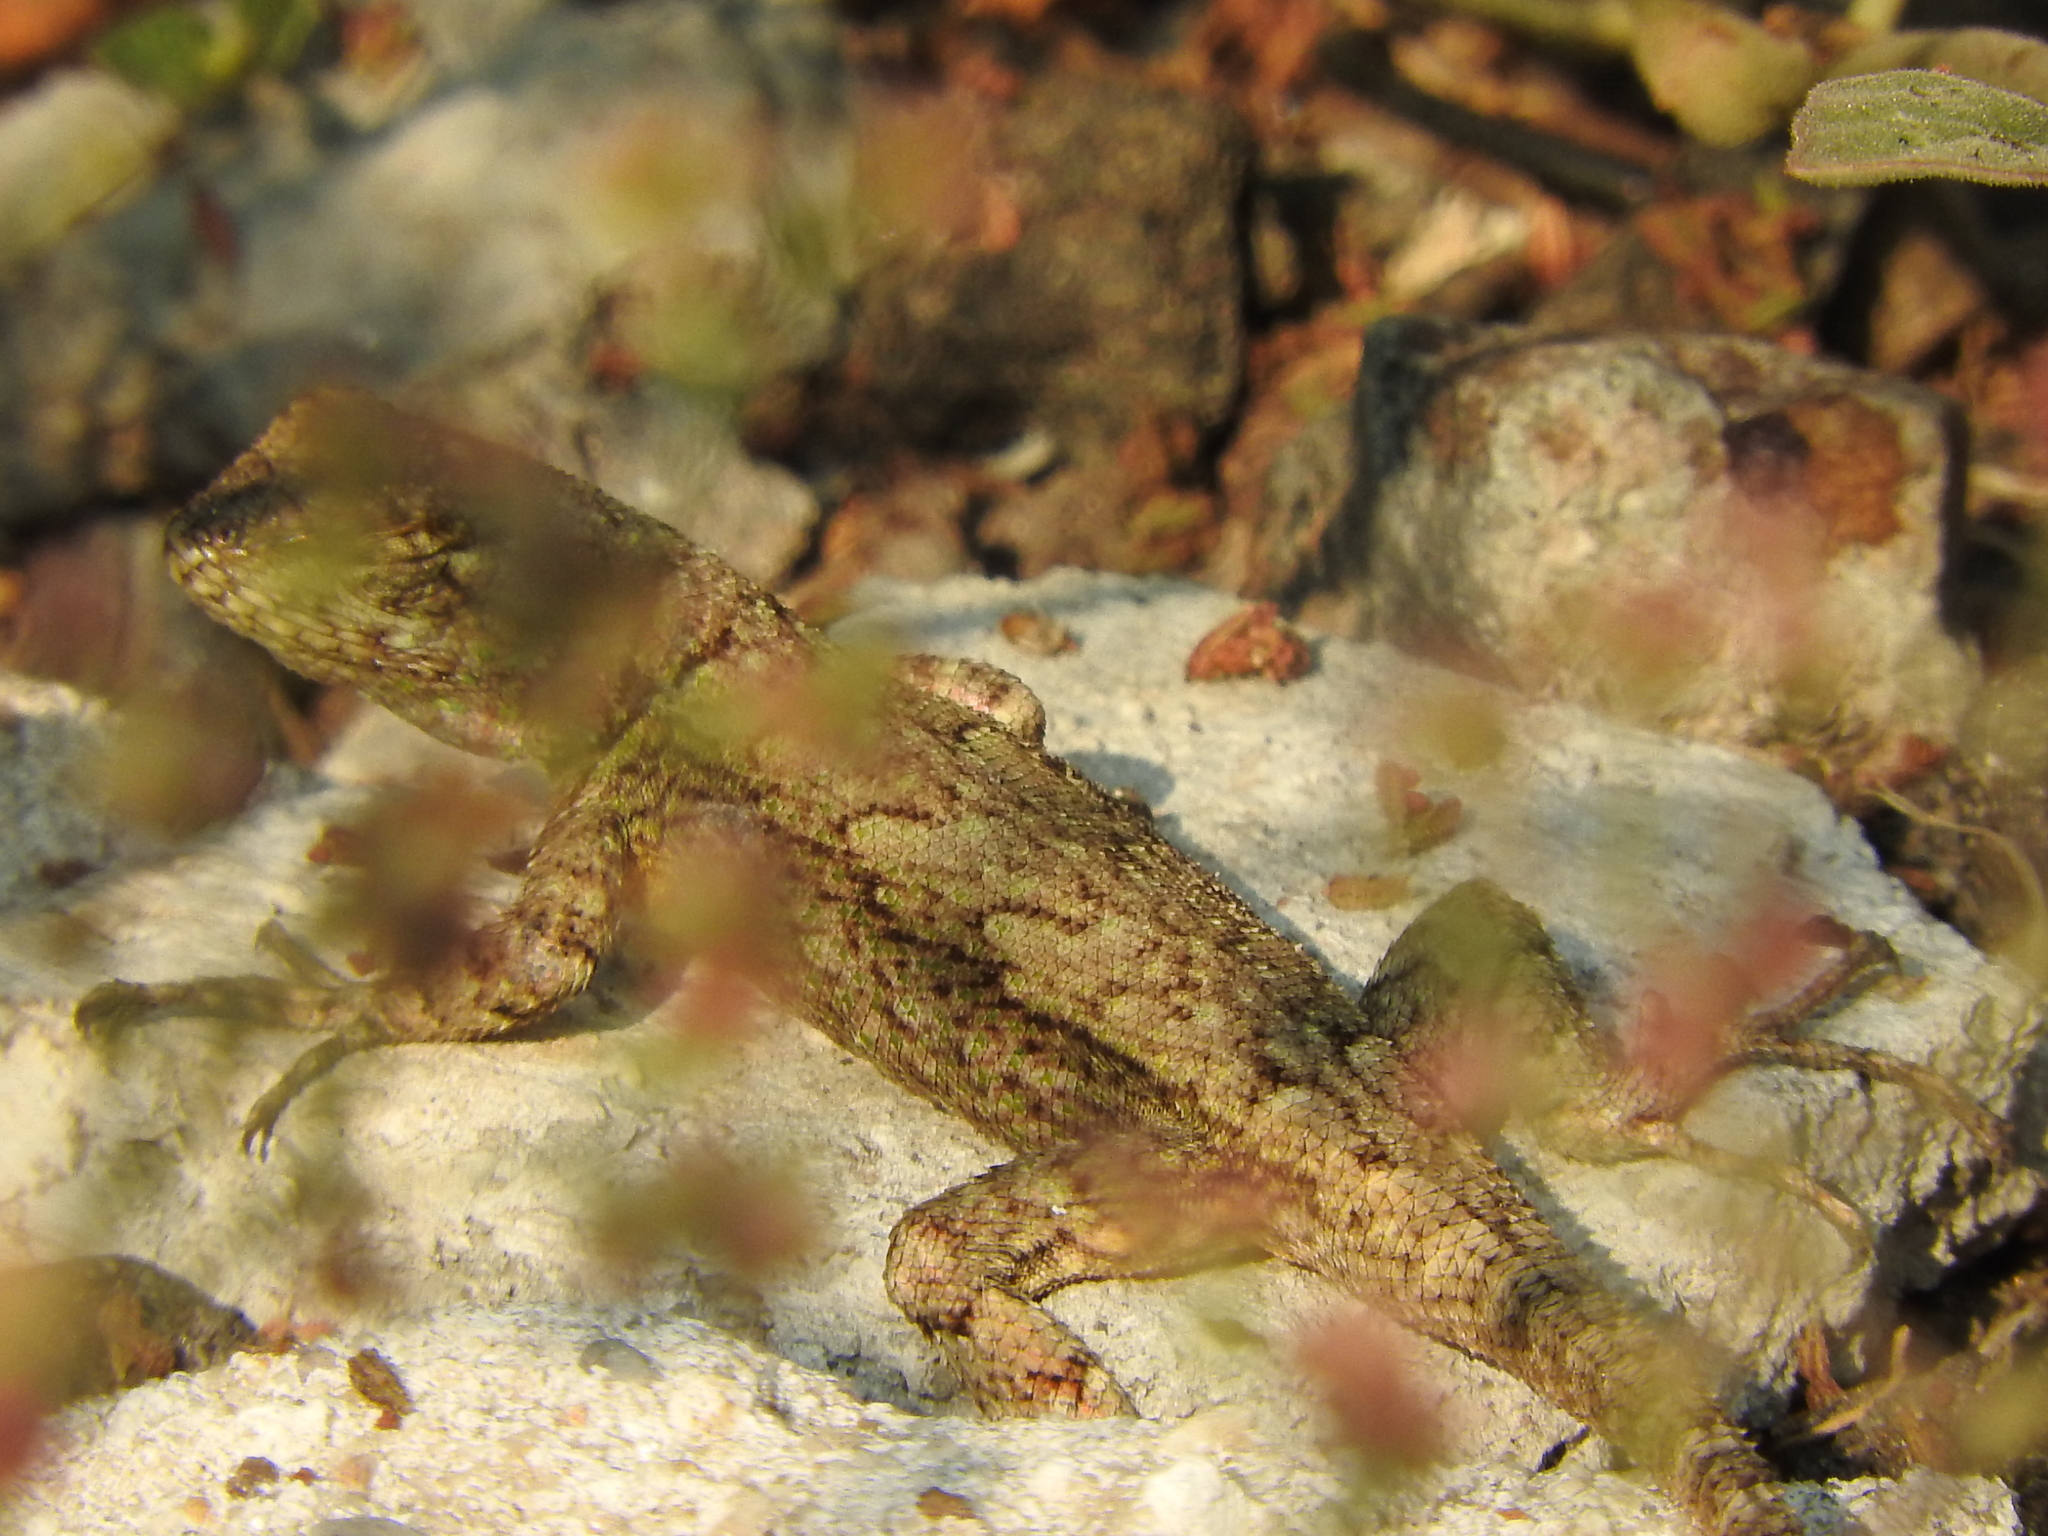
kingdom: Animalia
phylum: Chordata
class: Squamata
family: Phrynosomatidae
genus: Sceloporus
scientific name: Sceloporus grammicus
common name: Mesquite lizard
